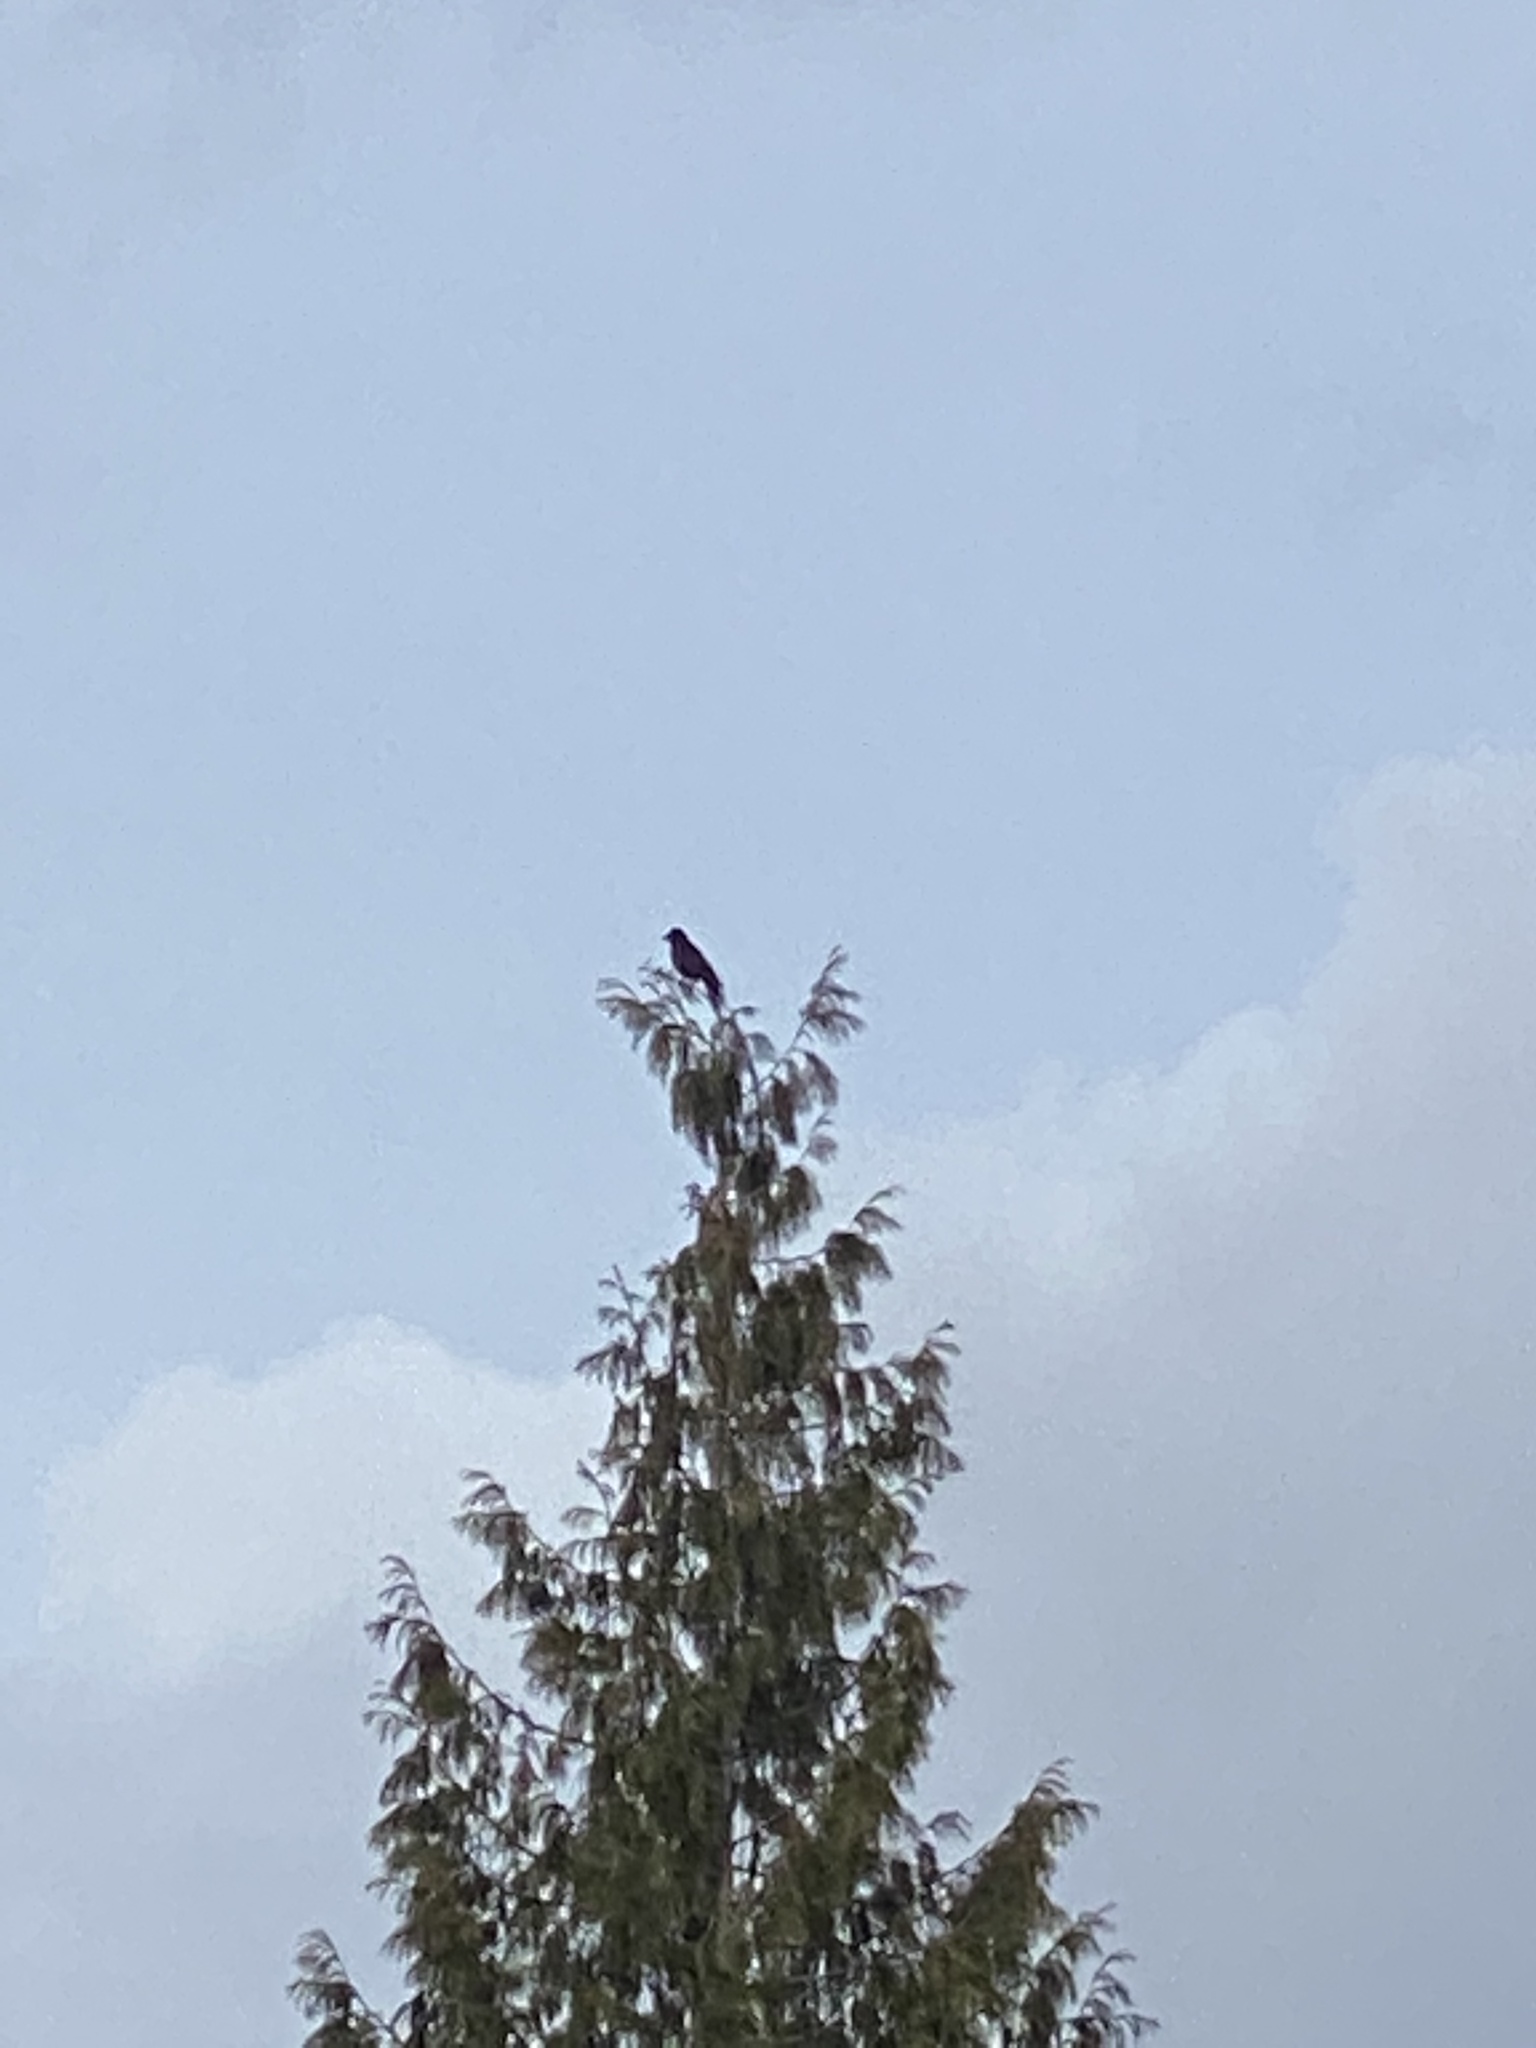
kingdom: Animalia
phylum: Chordata
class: Aves
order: Passeriformes
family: Corvidae
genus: Corvus
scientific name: Corvus brachyrhynchos
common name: American crow
